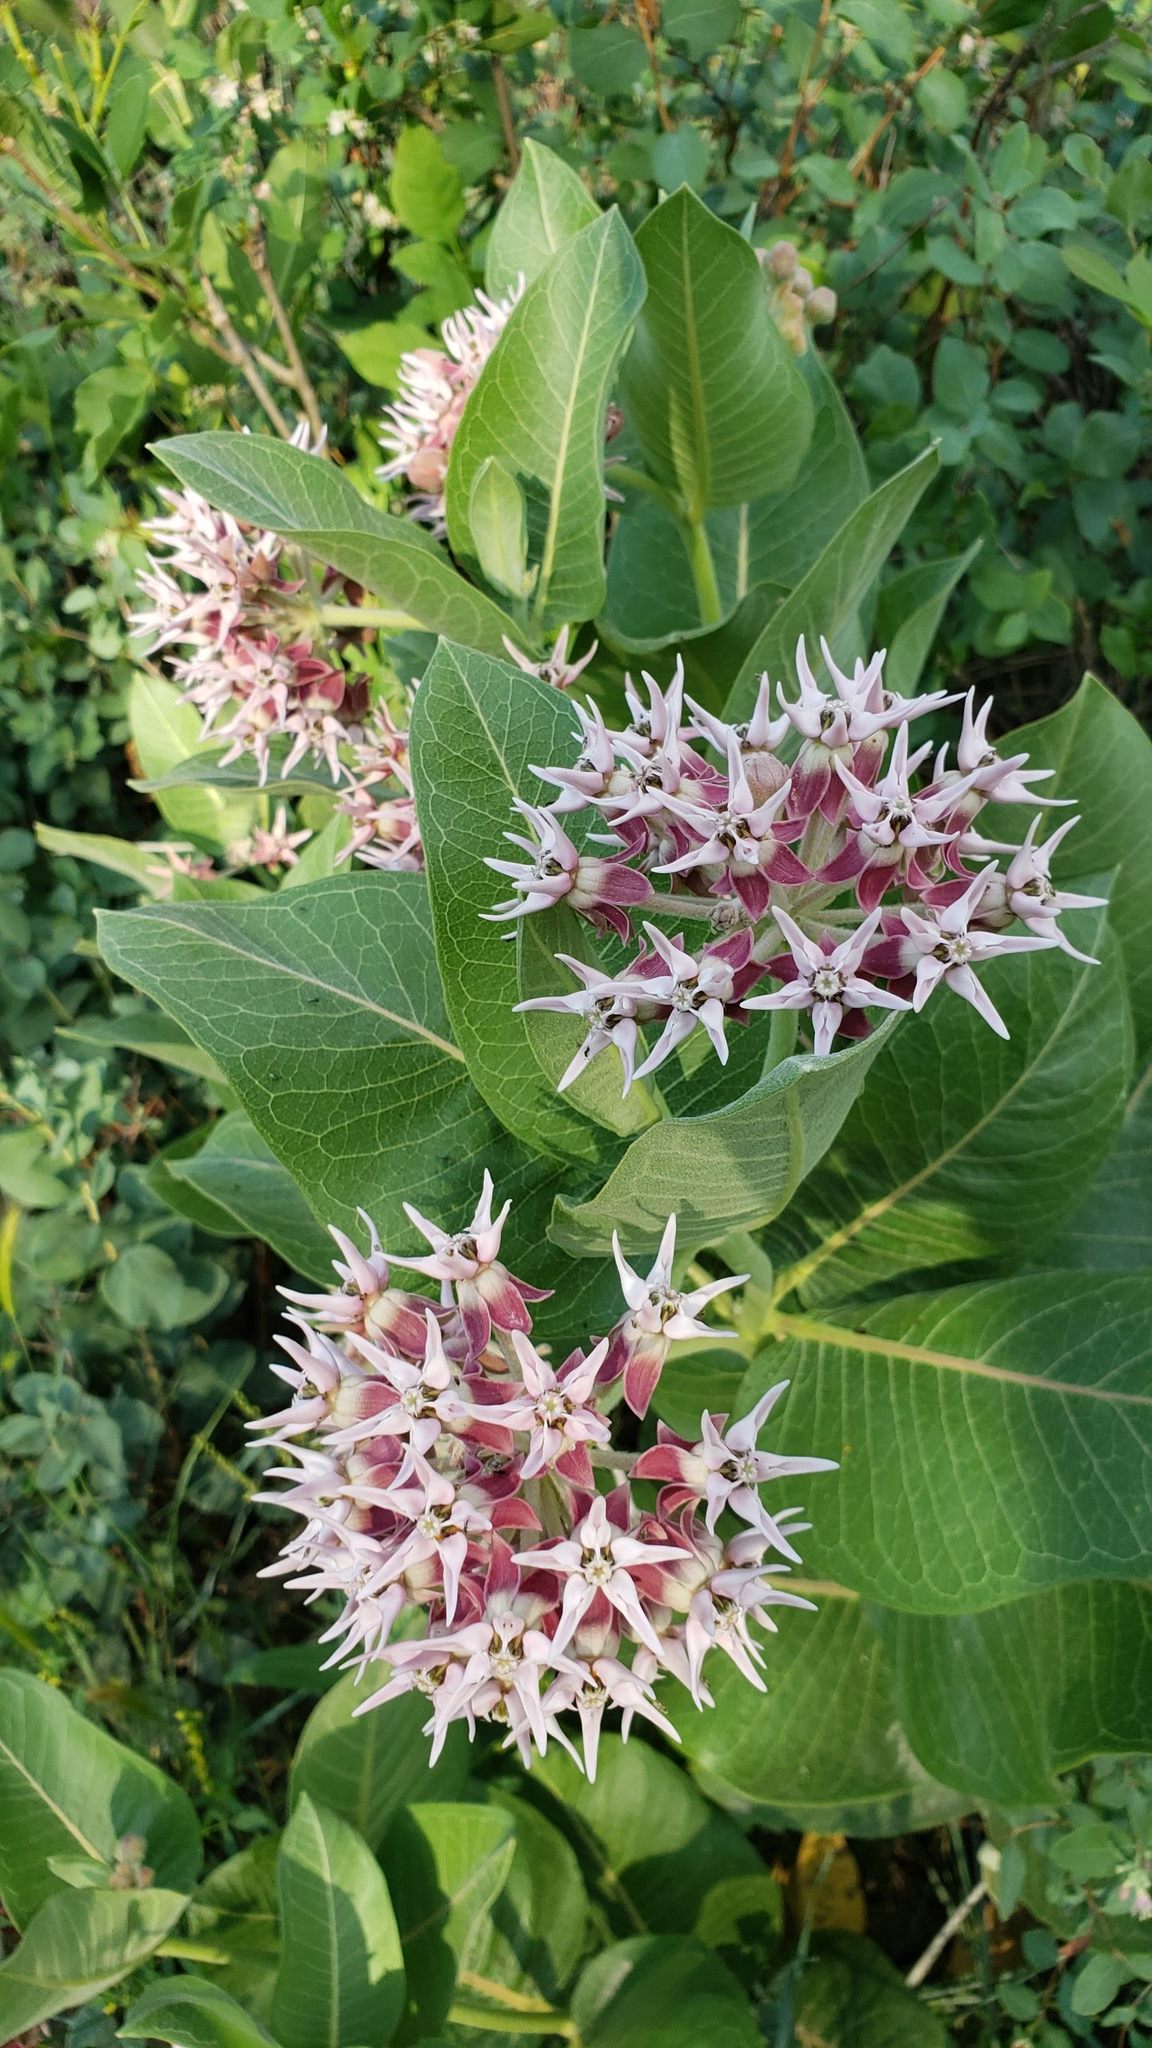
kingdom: Plantae
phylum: Tracheophyta
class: Magnoliopsida
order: Gentianales
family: Apocynaceae
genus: Asclepias
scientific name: Asclepias speciosa
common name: Showy milkweed
